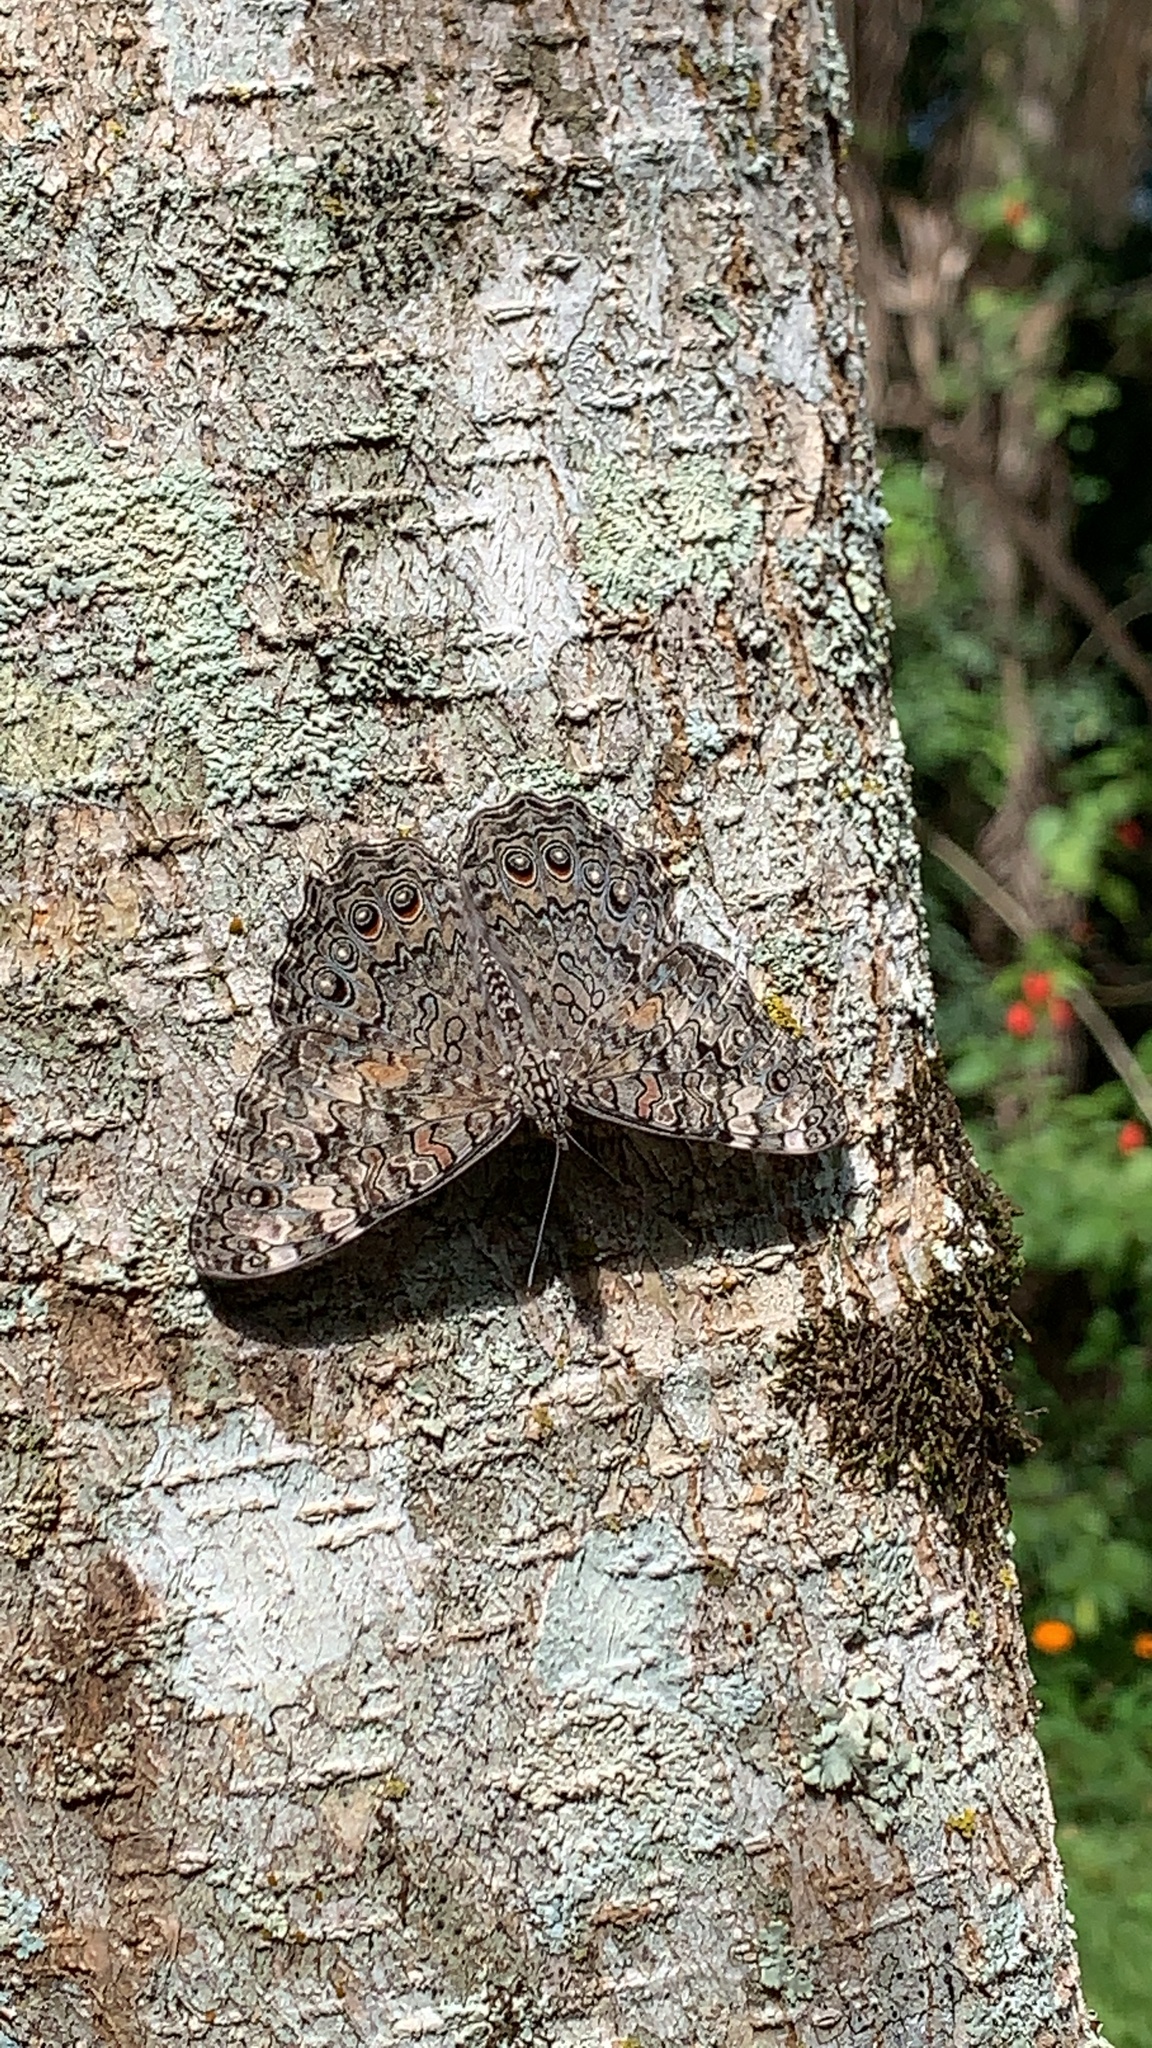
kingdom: Animalia
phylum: Arthropoda
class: Insecta
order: Lepidoptera
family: Nymphalidae
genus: Hamadryas
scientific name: Hamadryas februa
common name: Gray cracker
